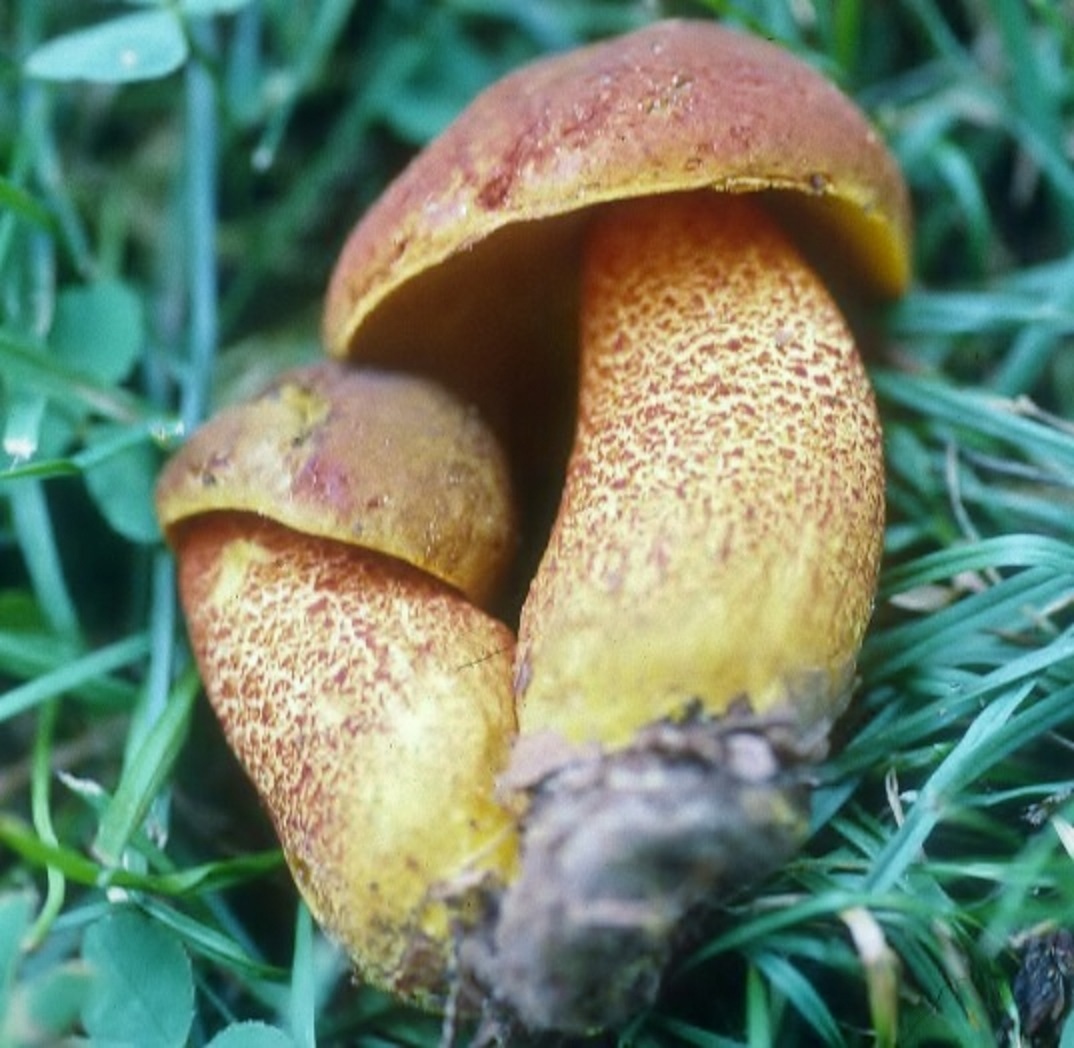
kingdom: Fungi
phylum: Basidiomycota
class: Agaricomycetes
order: Boletales
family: Boletaceae
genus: Xerocomus
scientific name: Xerocomus morrisii
